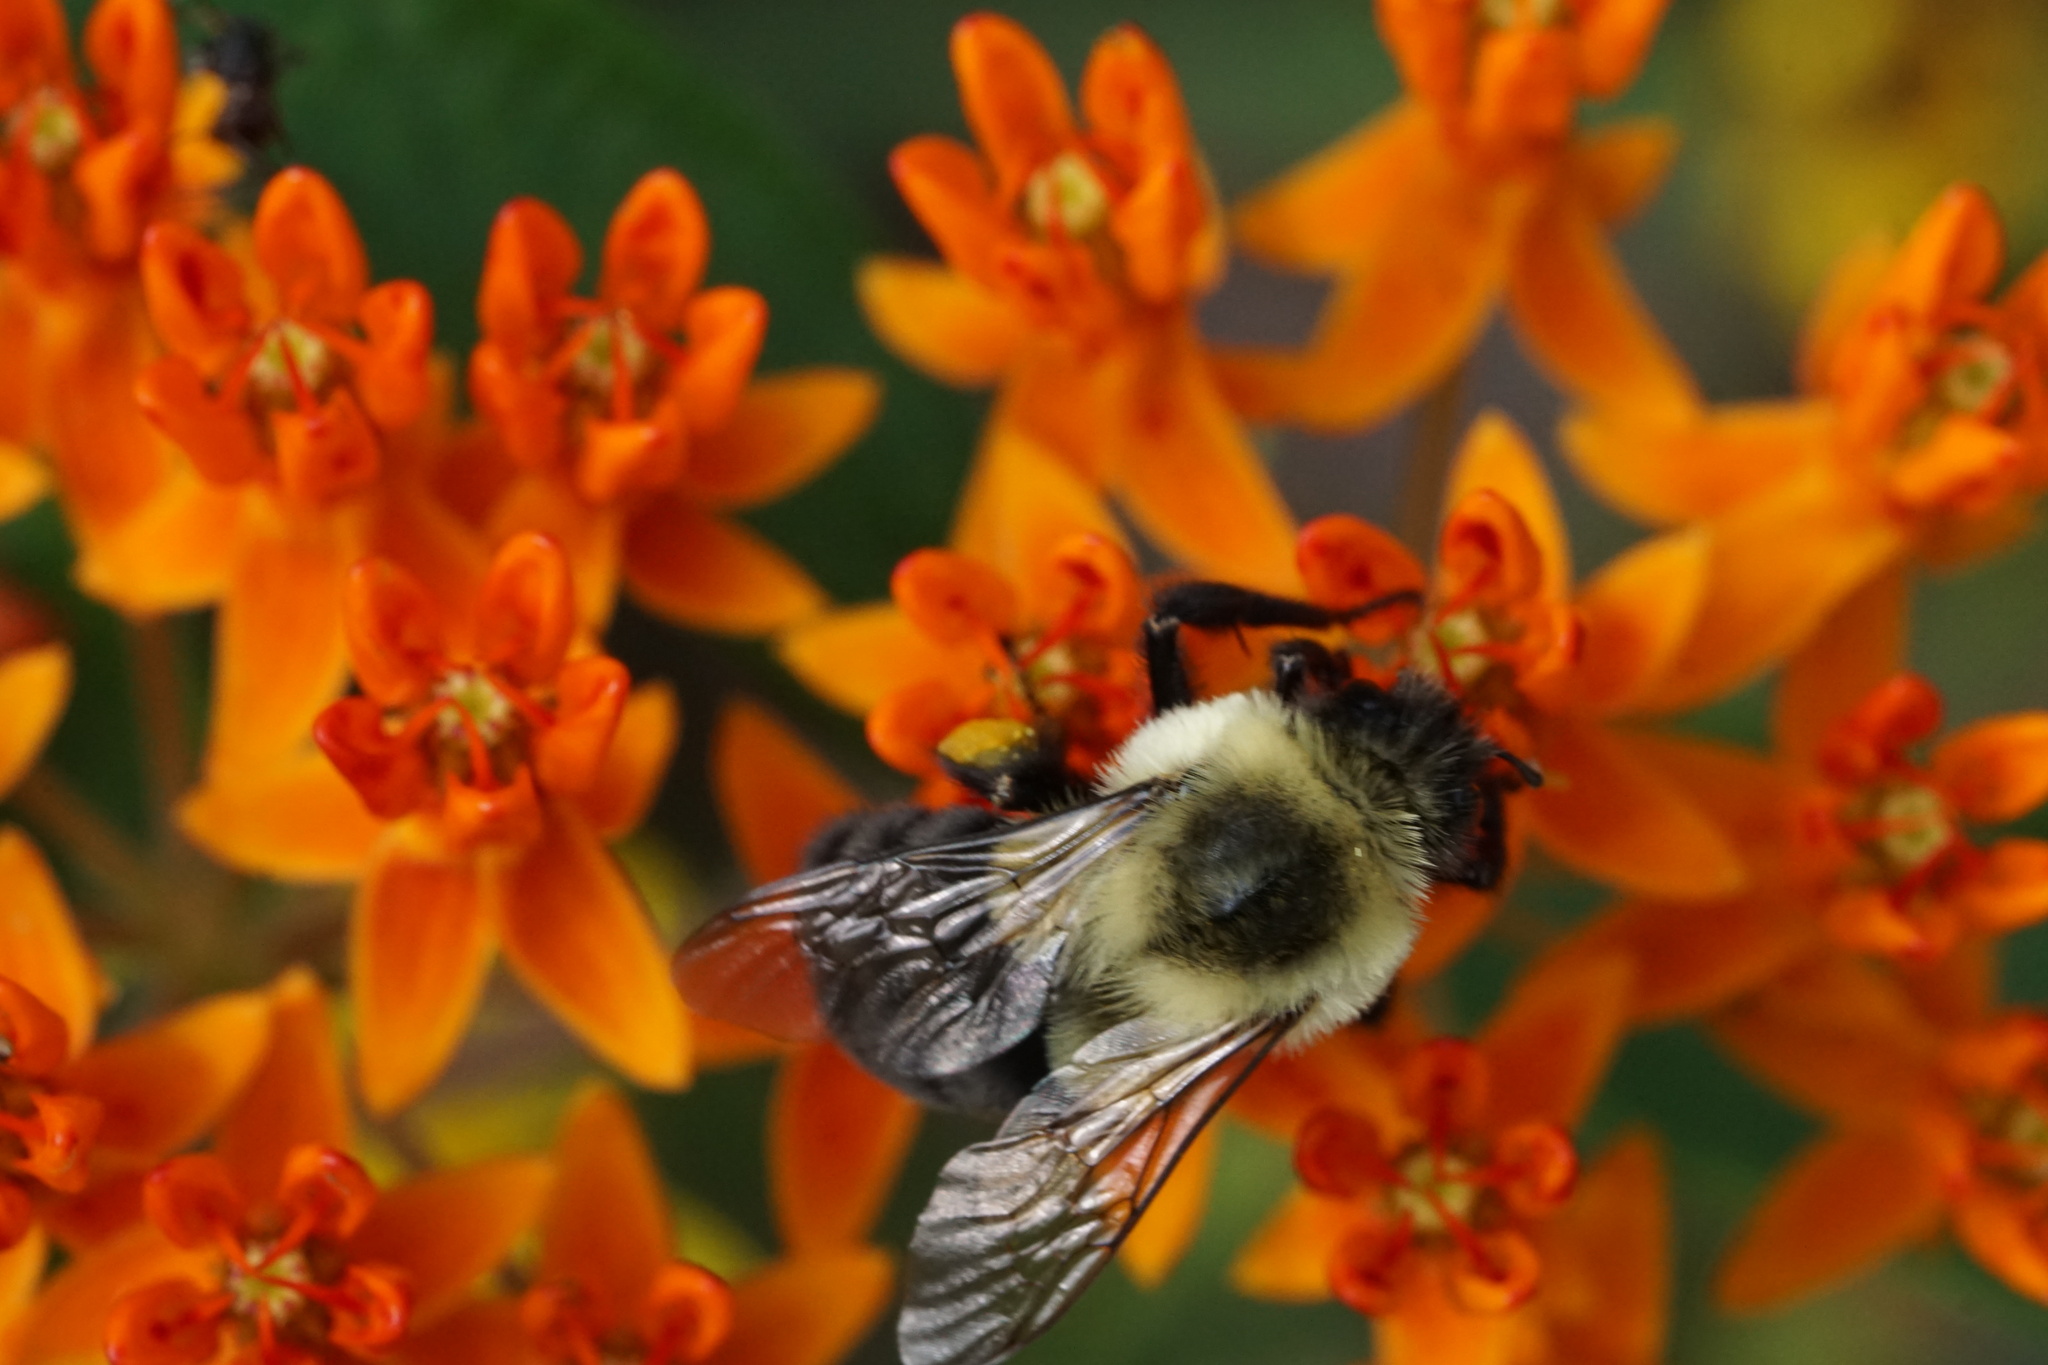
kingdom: Animalia
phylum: Arthropoda
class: Insecta
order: Hymenoptera
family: Apidae
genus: Bombus
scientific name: Bombus impatiens
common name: Common eastern bumble bee
